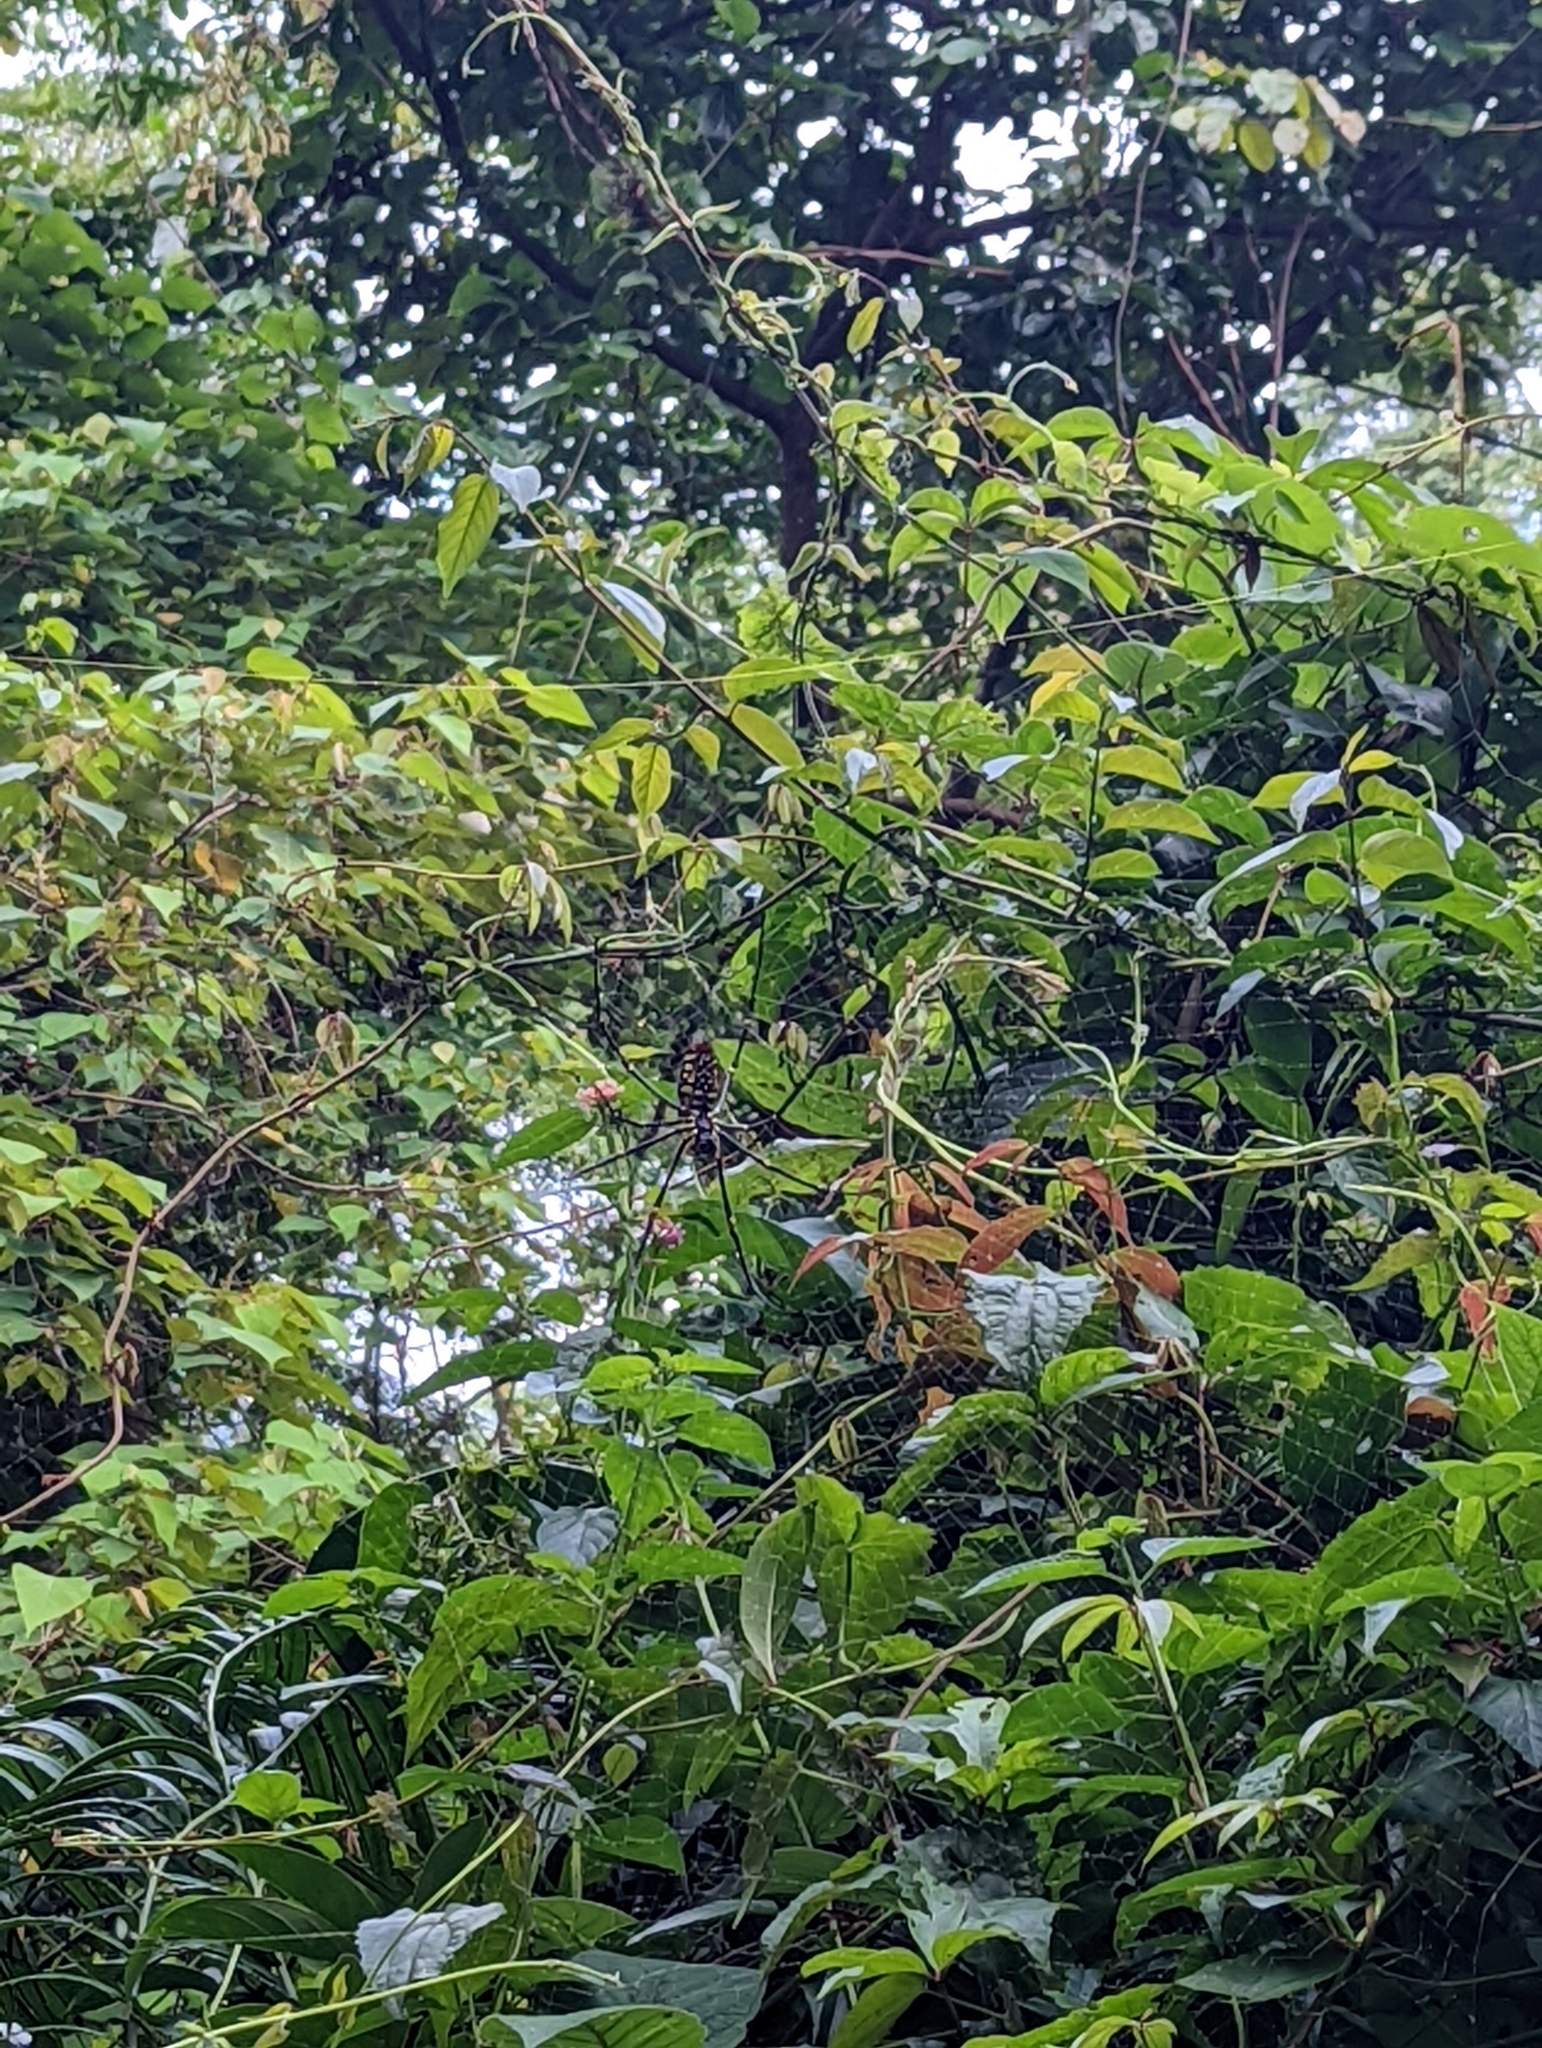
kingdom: Animalia
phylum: Arthropoda
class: Arachnida
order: Araneae
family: Araneidae
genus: Nephila
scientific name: Nephila pilipes
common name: Giant golden orb weaver
